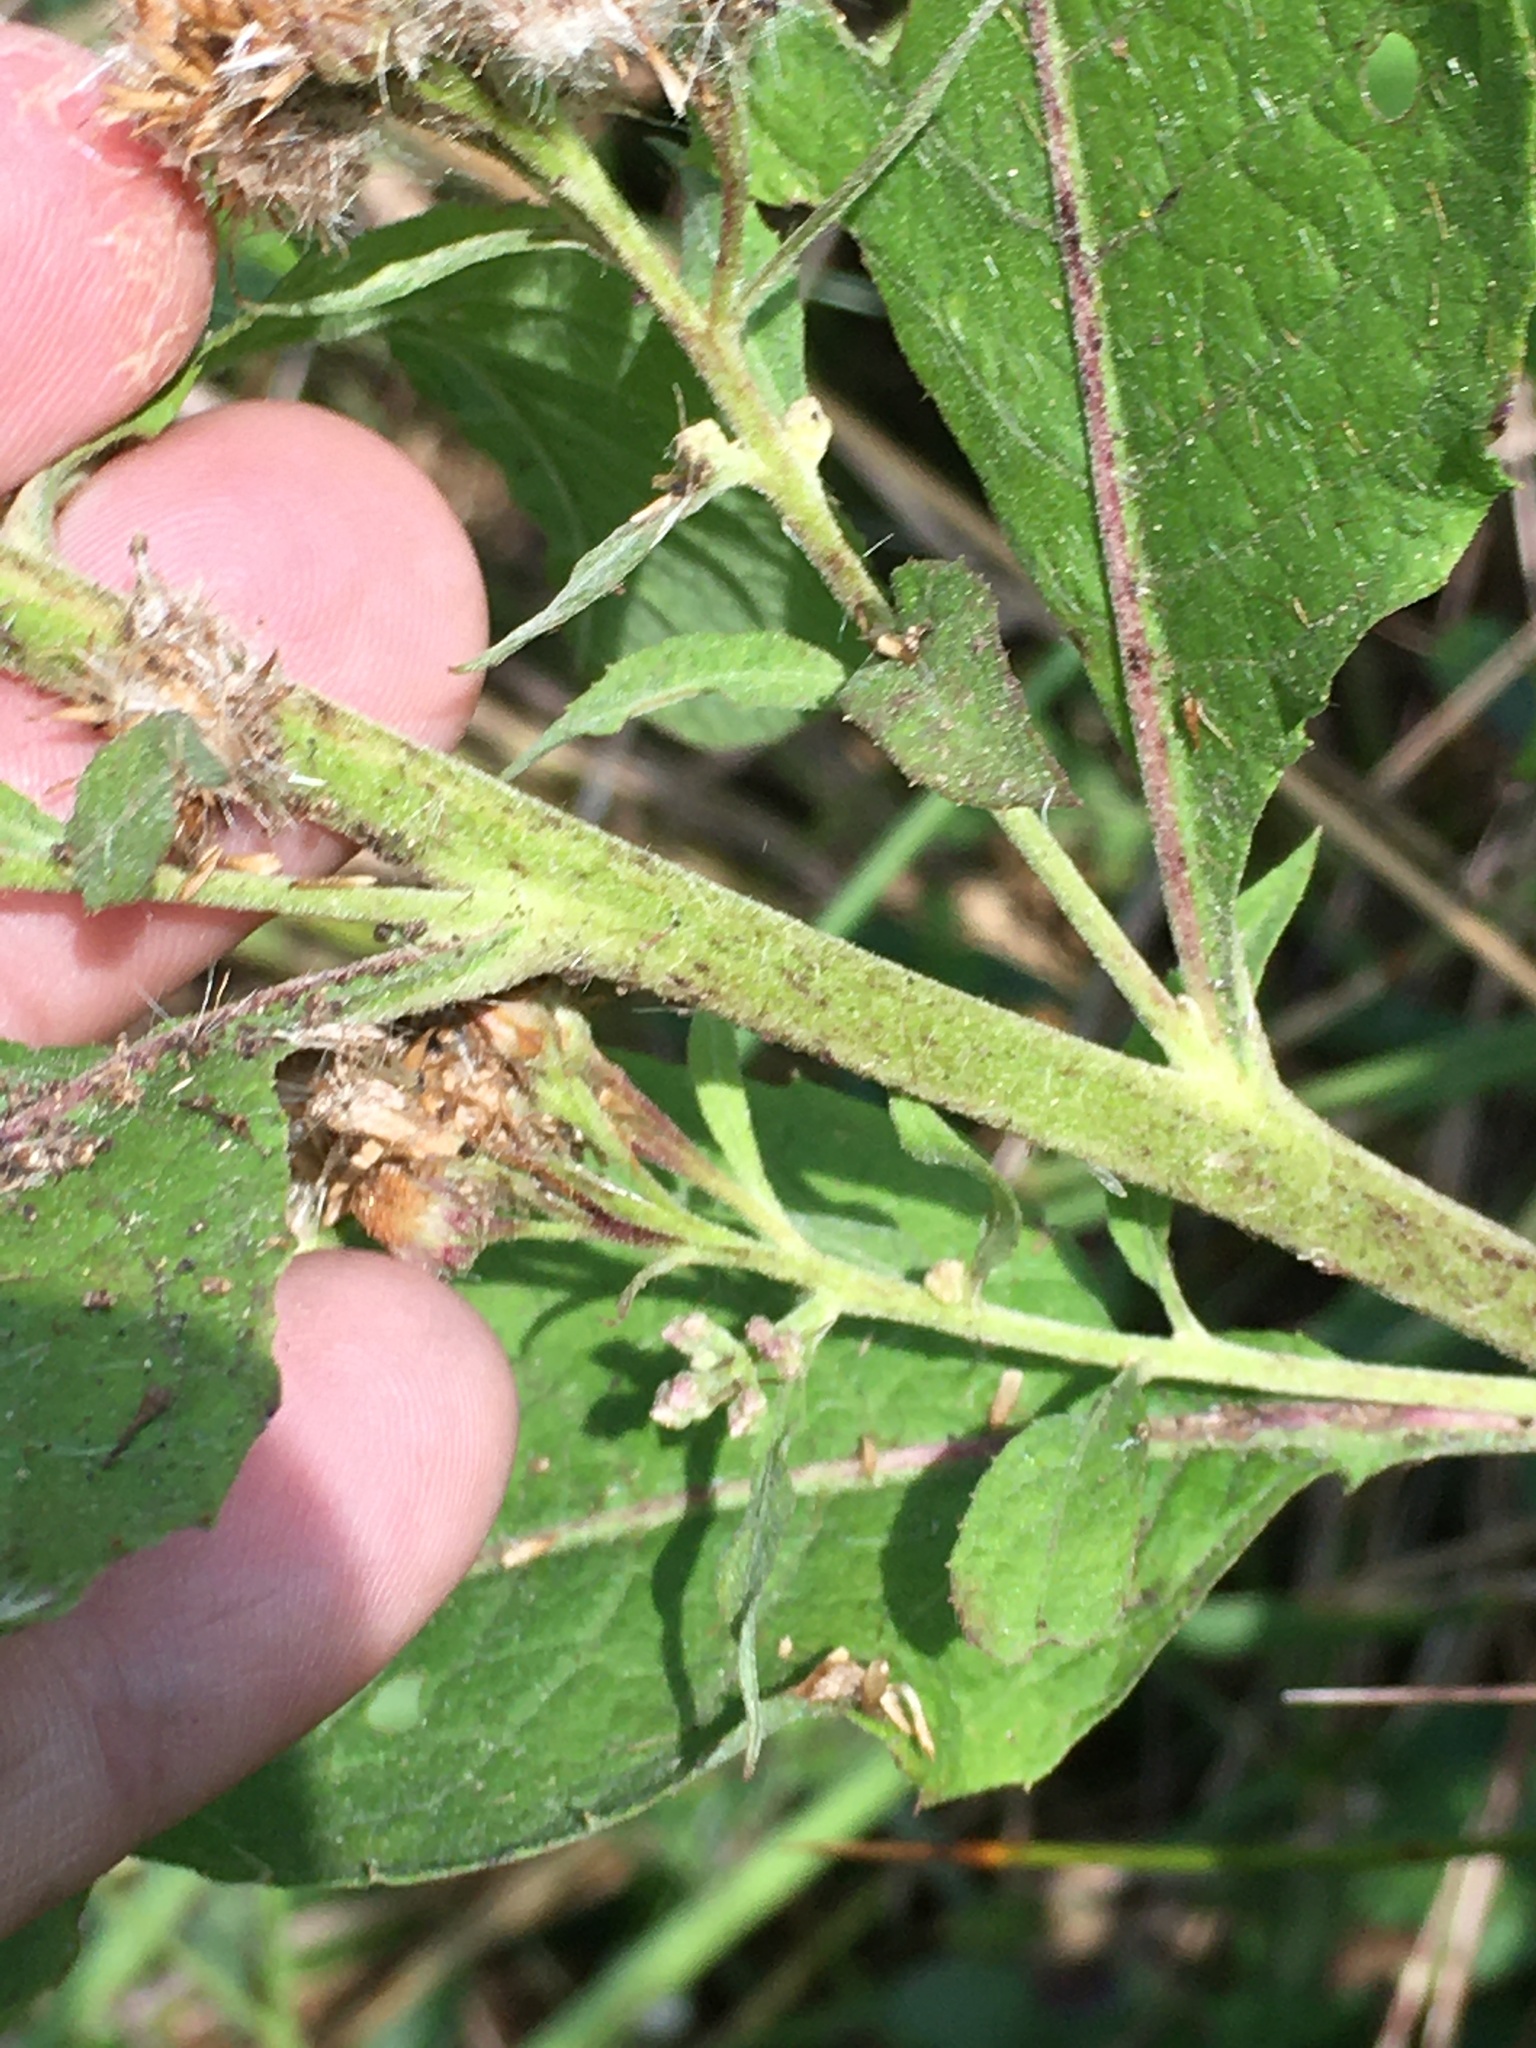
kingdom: Plantae
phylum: Tracheophyta
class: Magnoliopsida
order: Asterales
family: Asteraceae
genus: Pluchea
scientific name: Pluchea camphorata
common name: Camphor pluchea
